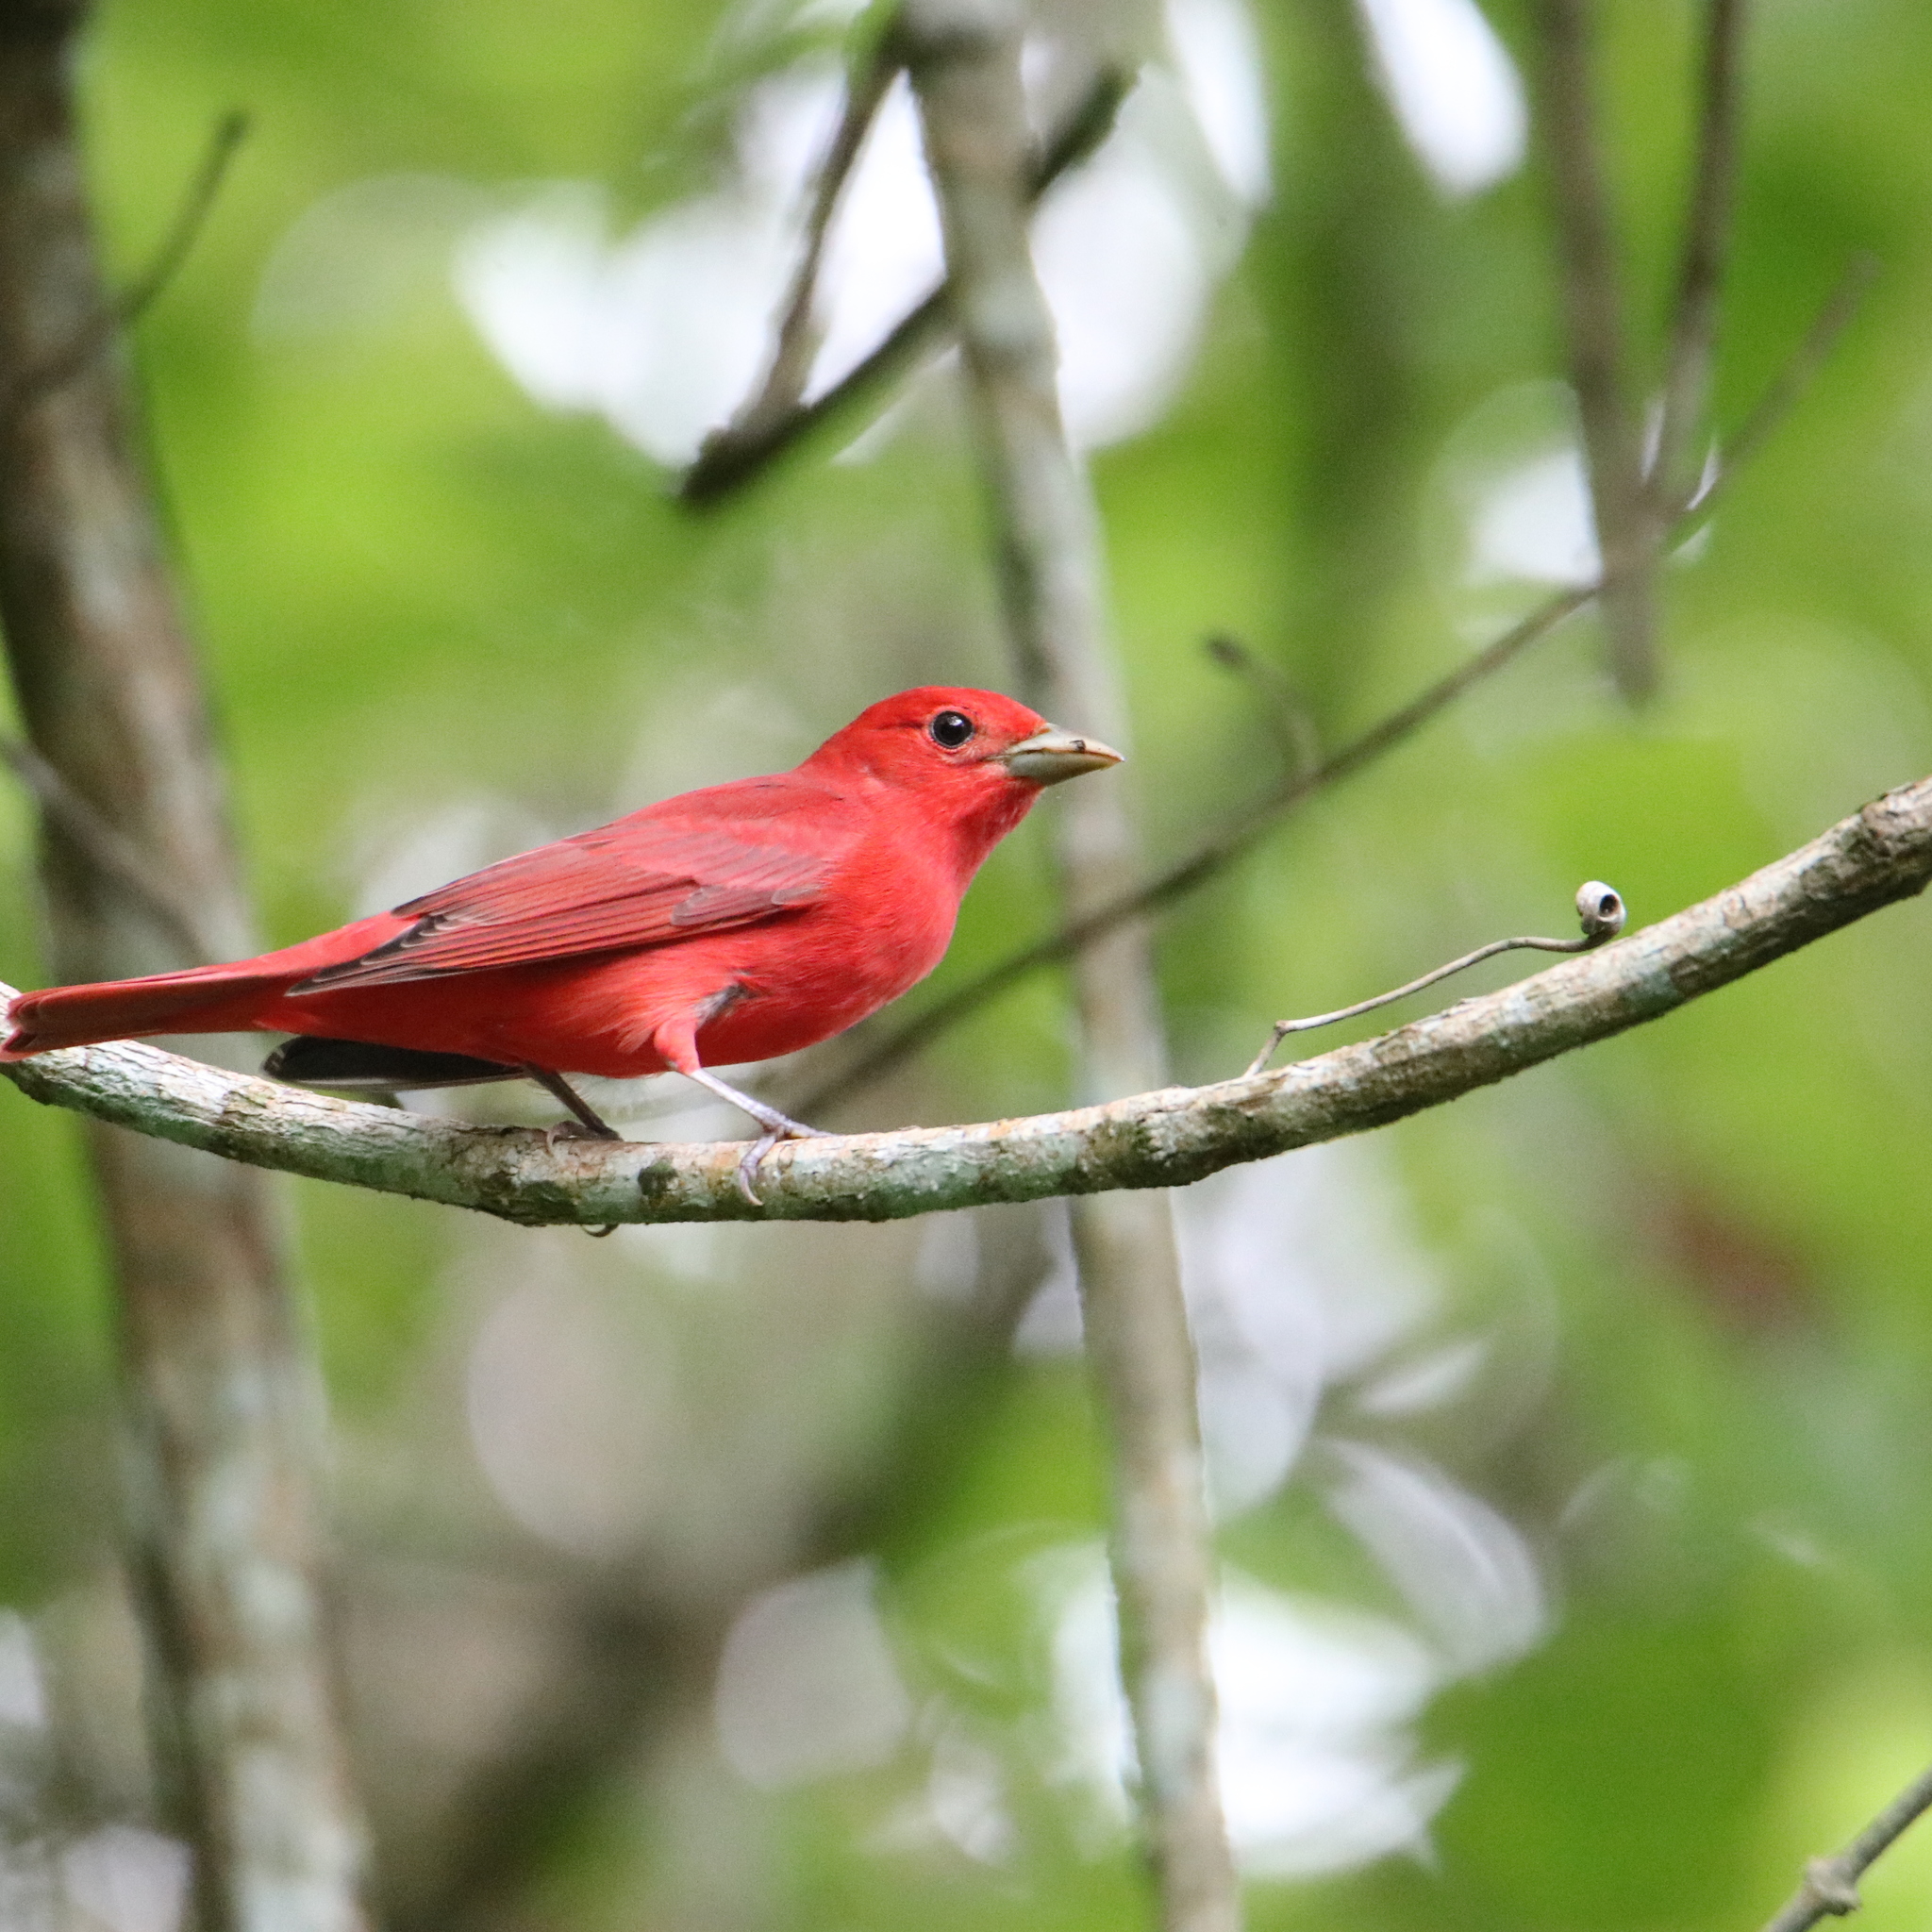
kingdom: Animalia
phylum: Chordata
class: Aves
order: Passeriformes
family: Cardinalidae
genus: Piranga
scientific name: Piranga rubra
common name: Summer tanager
